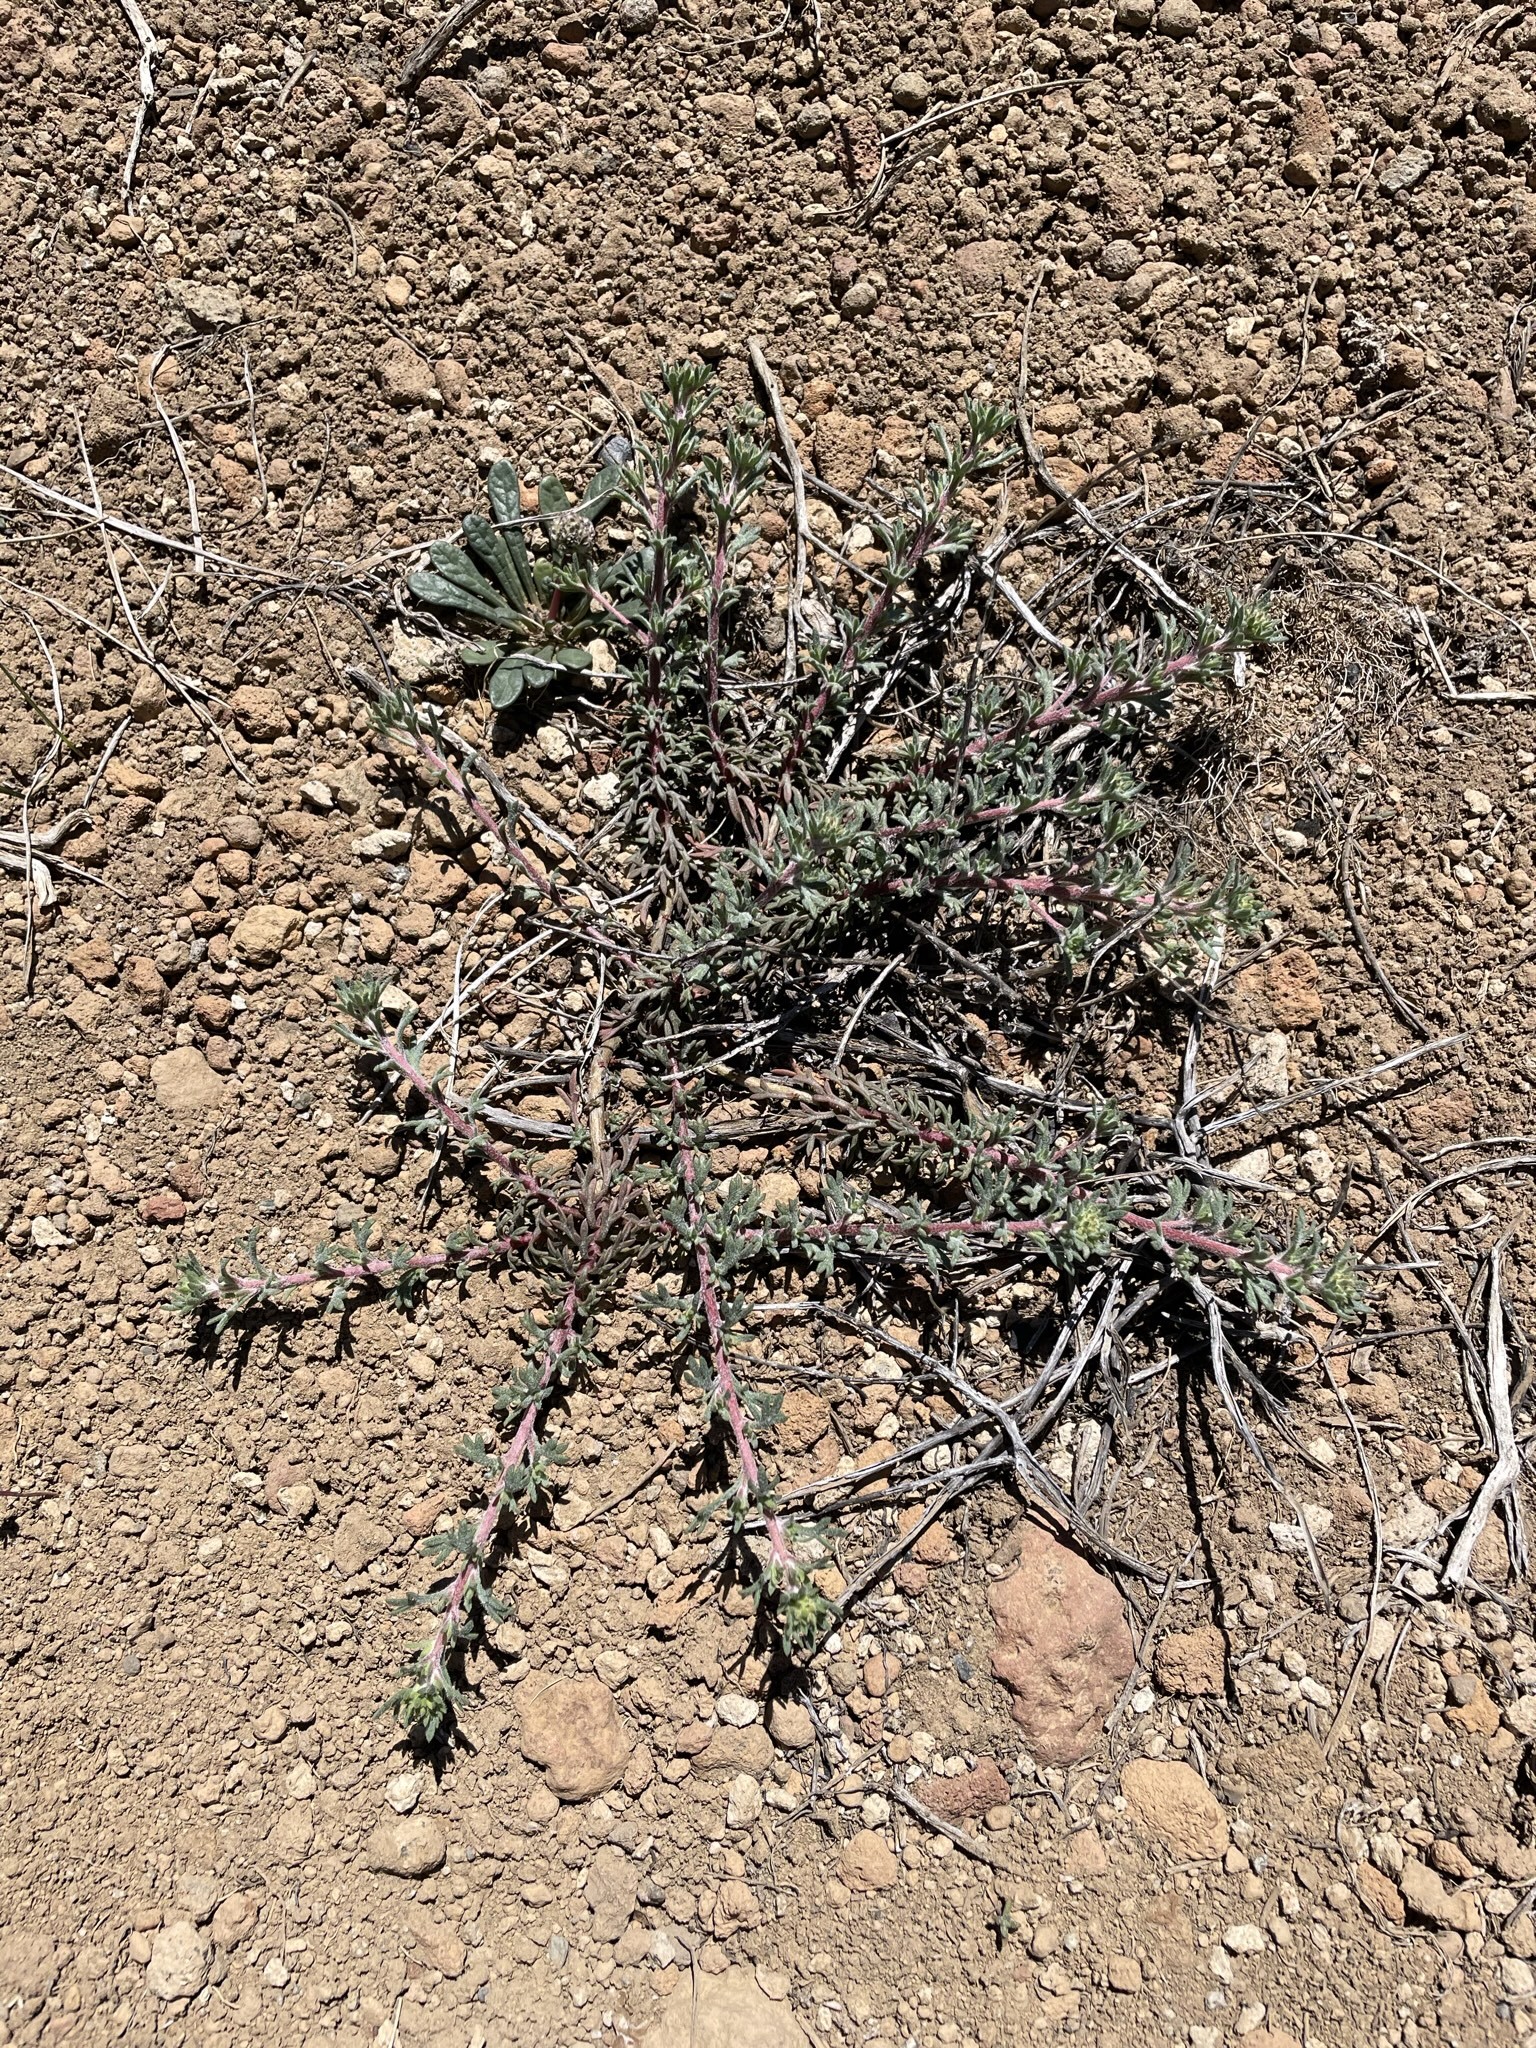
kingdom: Plantae
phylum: Tracheophyta
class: Magnoliopsida
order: Ericales
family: Polemoniaceae
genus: Ipomopsis
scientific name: Ipomopsis congesta
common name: Ball-head gilia
